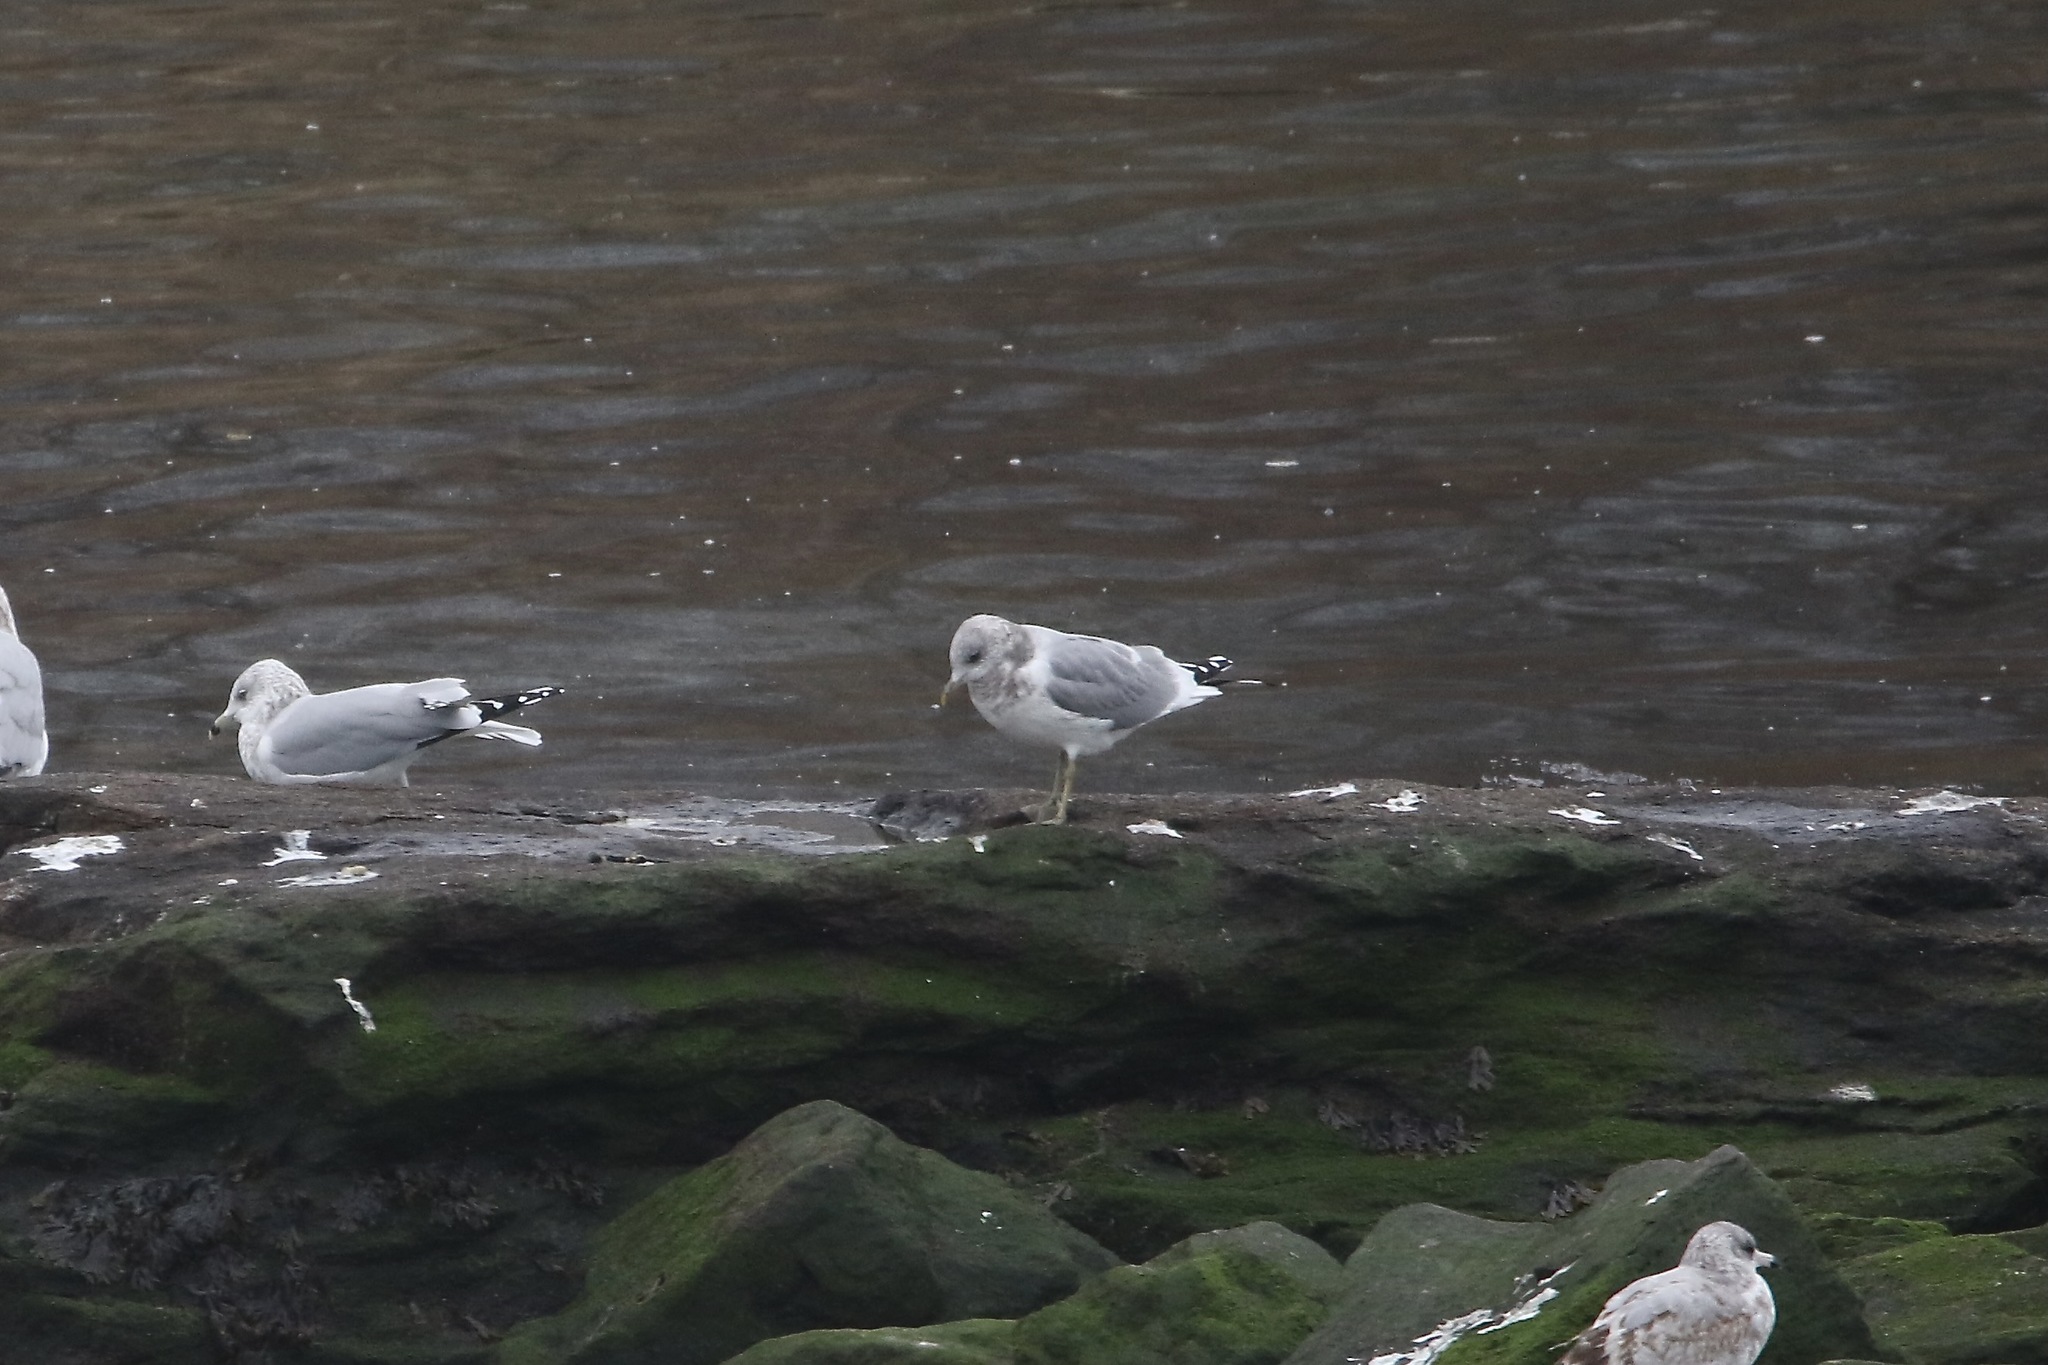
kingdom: Animalia
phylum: Chordata
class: Aves
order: Charadriiformes
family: Laridae
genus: Larus
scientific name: Larus brachyrhynchus
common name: Short-billed gull
